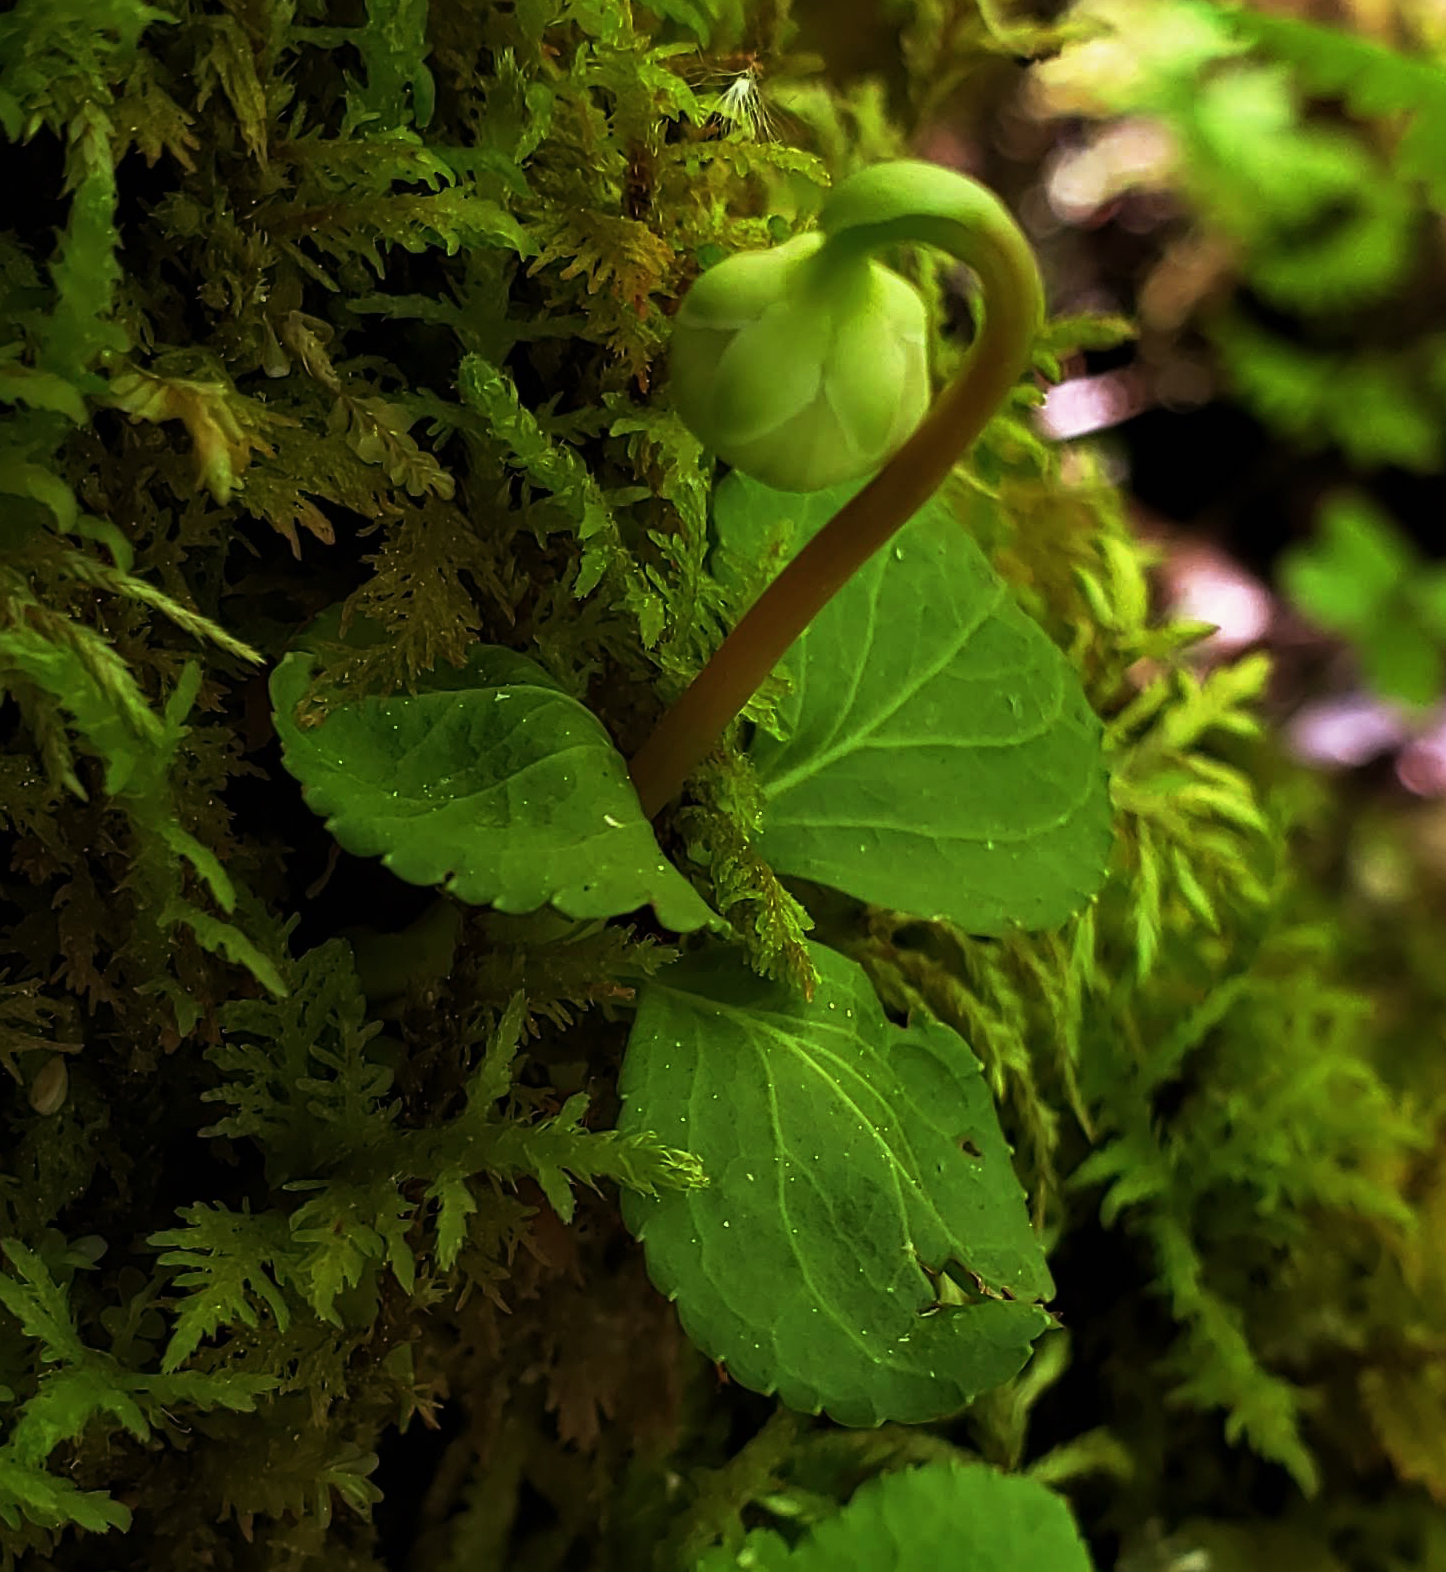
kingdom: Plantae
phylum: Tracheophyta
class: Magnoliopsida
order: Ericales
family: Ericaceae
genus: Moneses
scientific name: Moneses uniflora
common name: One-flowered wintergreen
